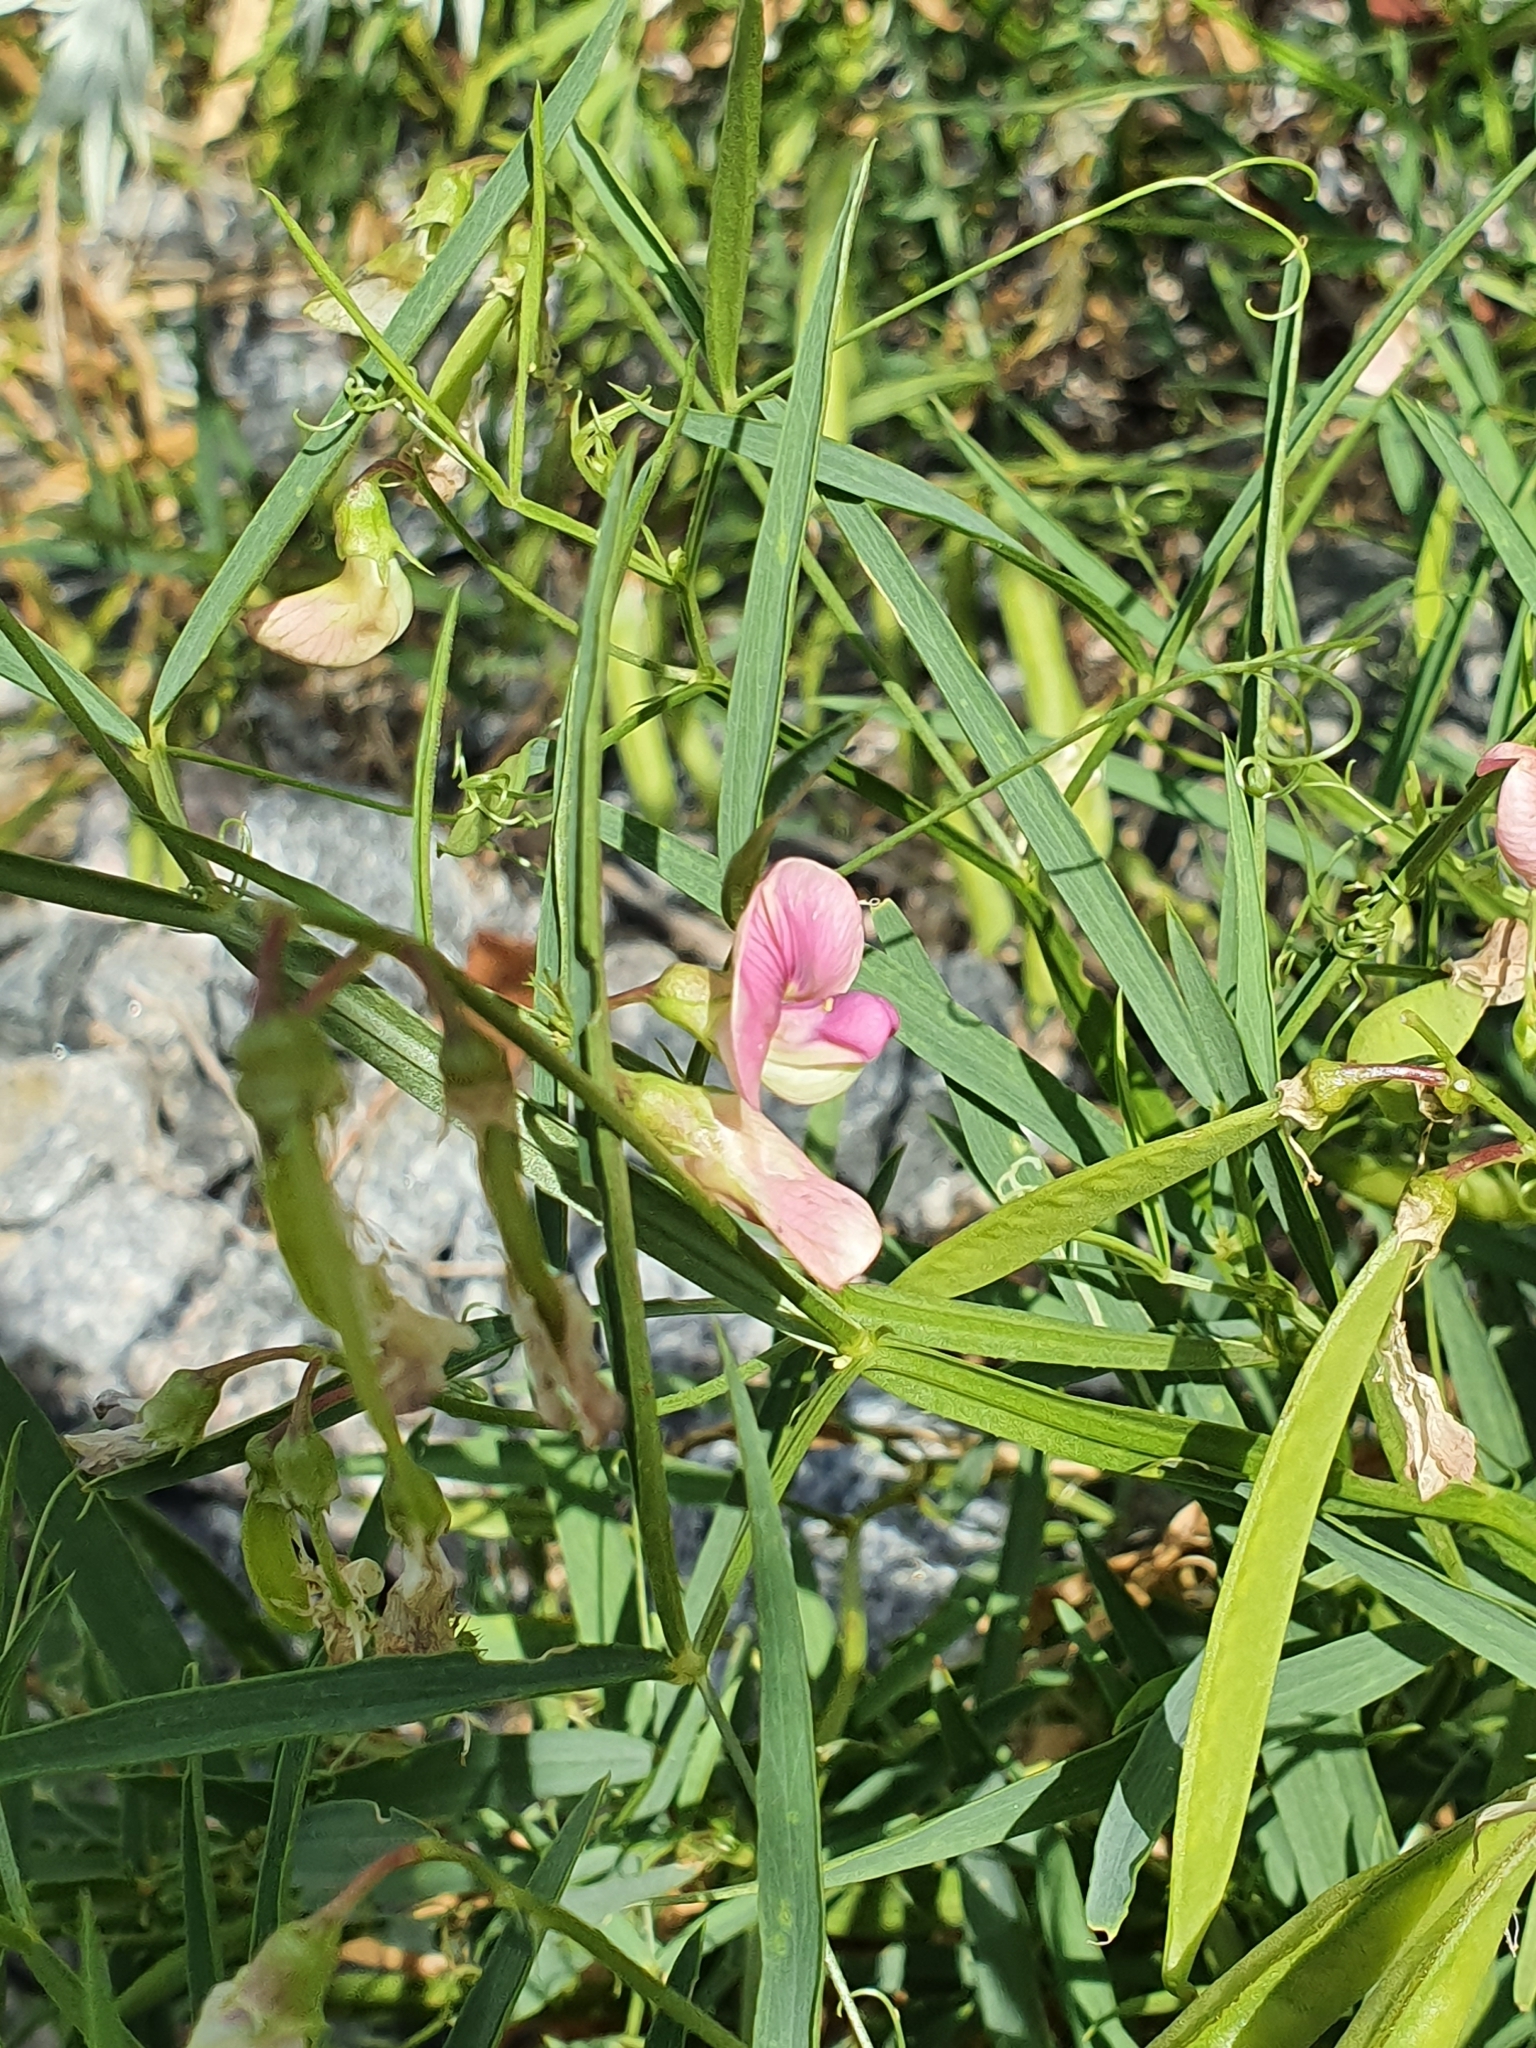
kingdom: Plantae
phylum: Tracheophyta
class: Magnoliopsida
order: Fabales
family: Fabaceae
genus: Lathyrus
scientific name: Lathyrus sylvestris
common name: Flat pea
